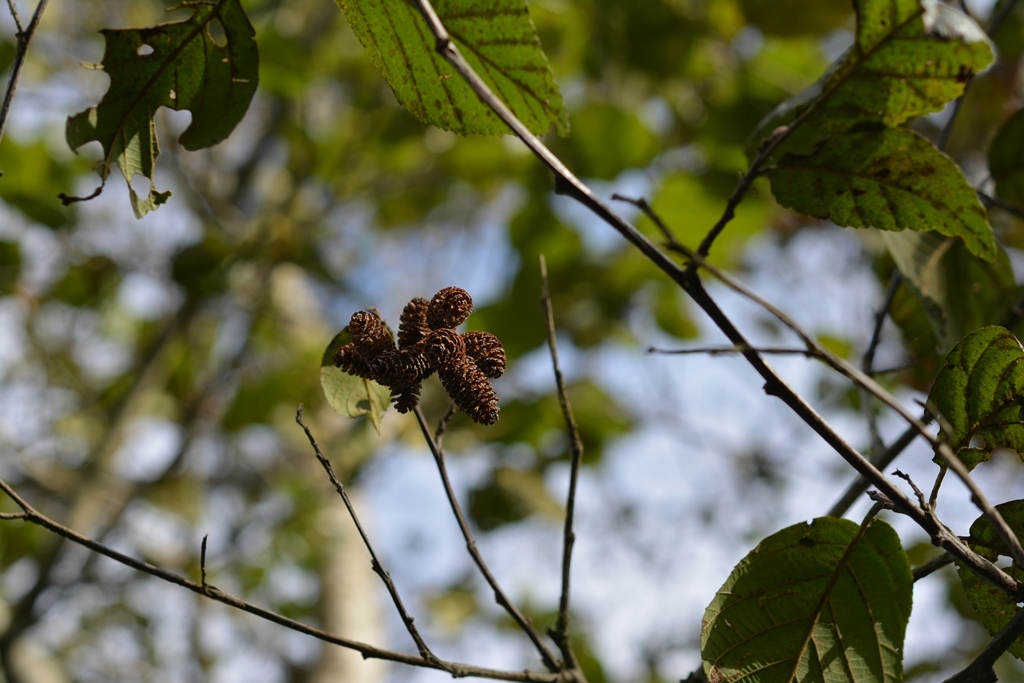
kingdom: Plantae
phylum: Tracheophyta
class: Magnoliopsida
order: Fagales
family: Betulaceae
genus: Alnus
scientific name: Alnus acuminata
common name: Alder
